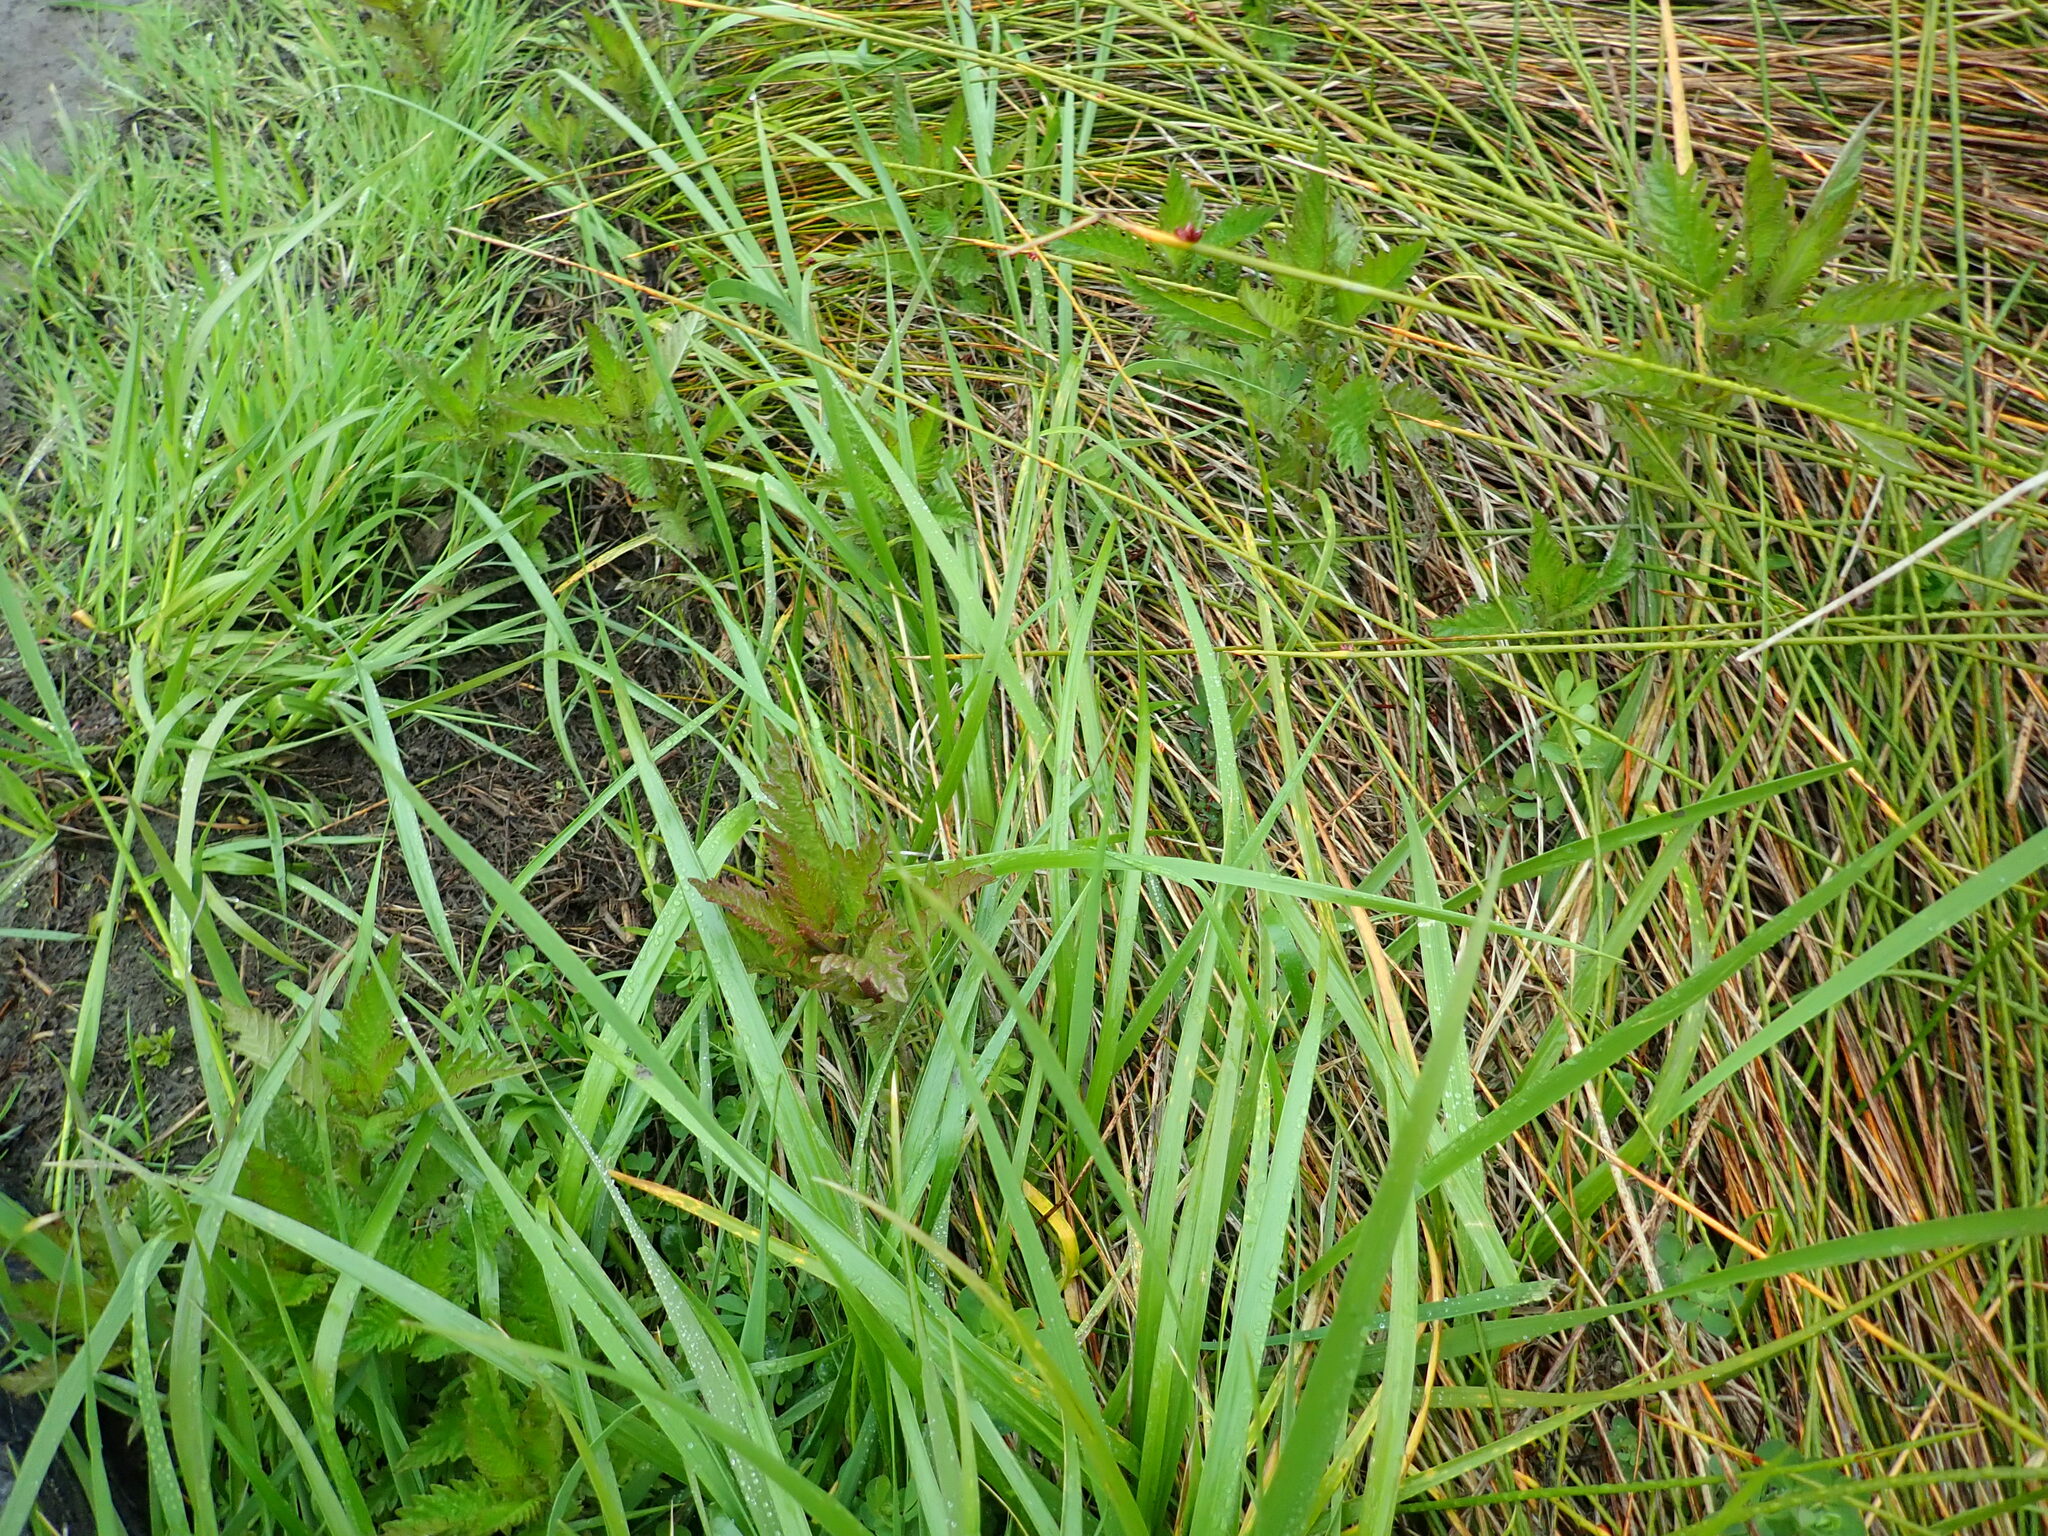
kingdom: Plantae
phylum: Tracheophyta
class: Magnoliopsida
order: Saxifragales
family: Haloragaceae
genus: Haloragis
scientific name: Haloragis erecta
